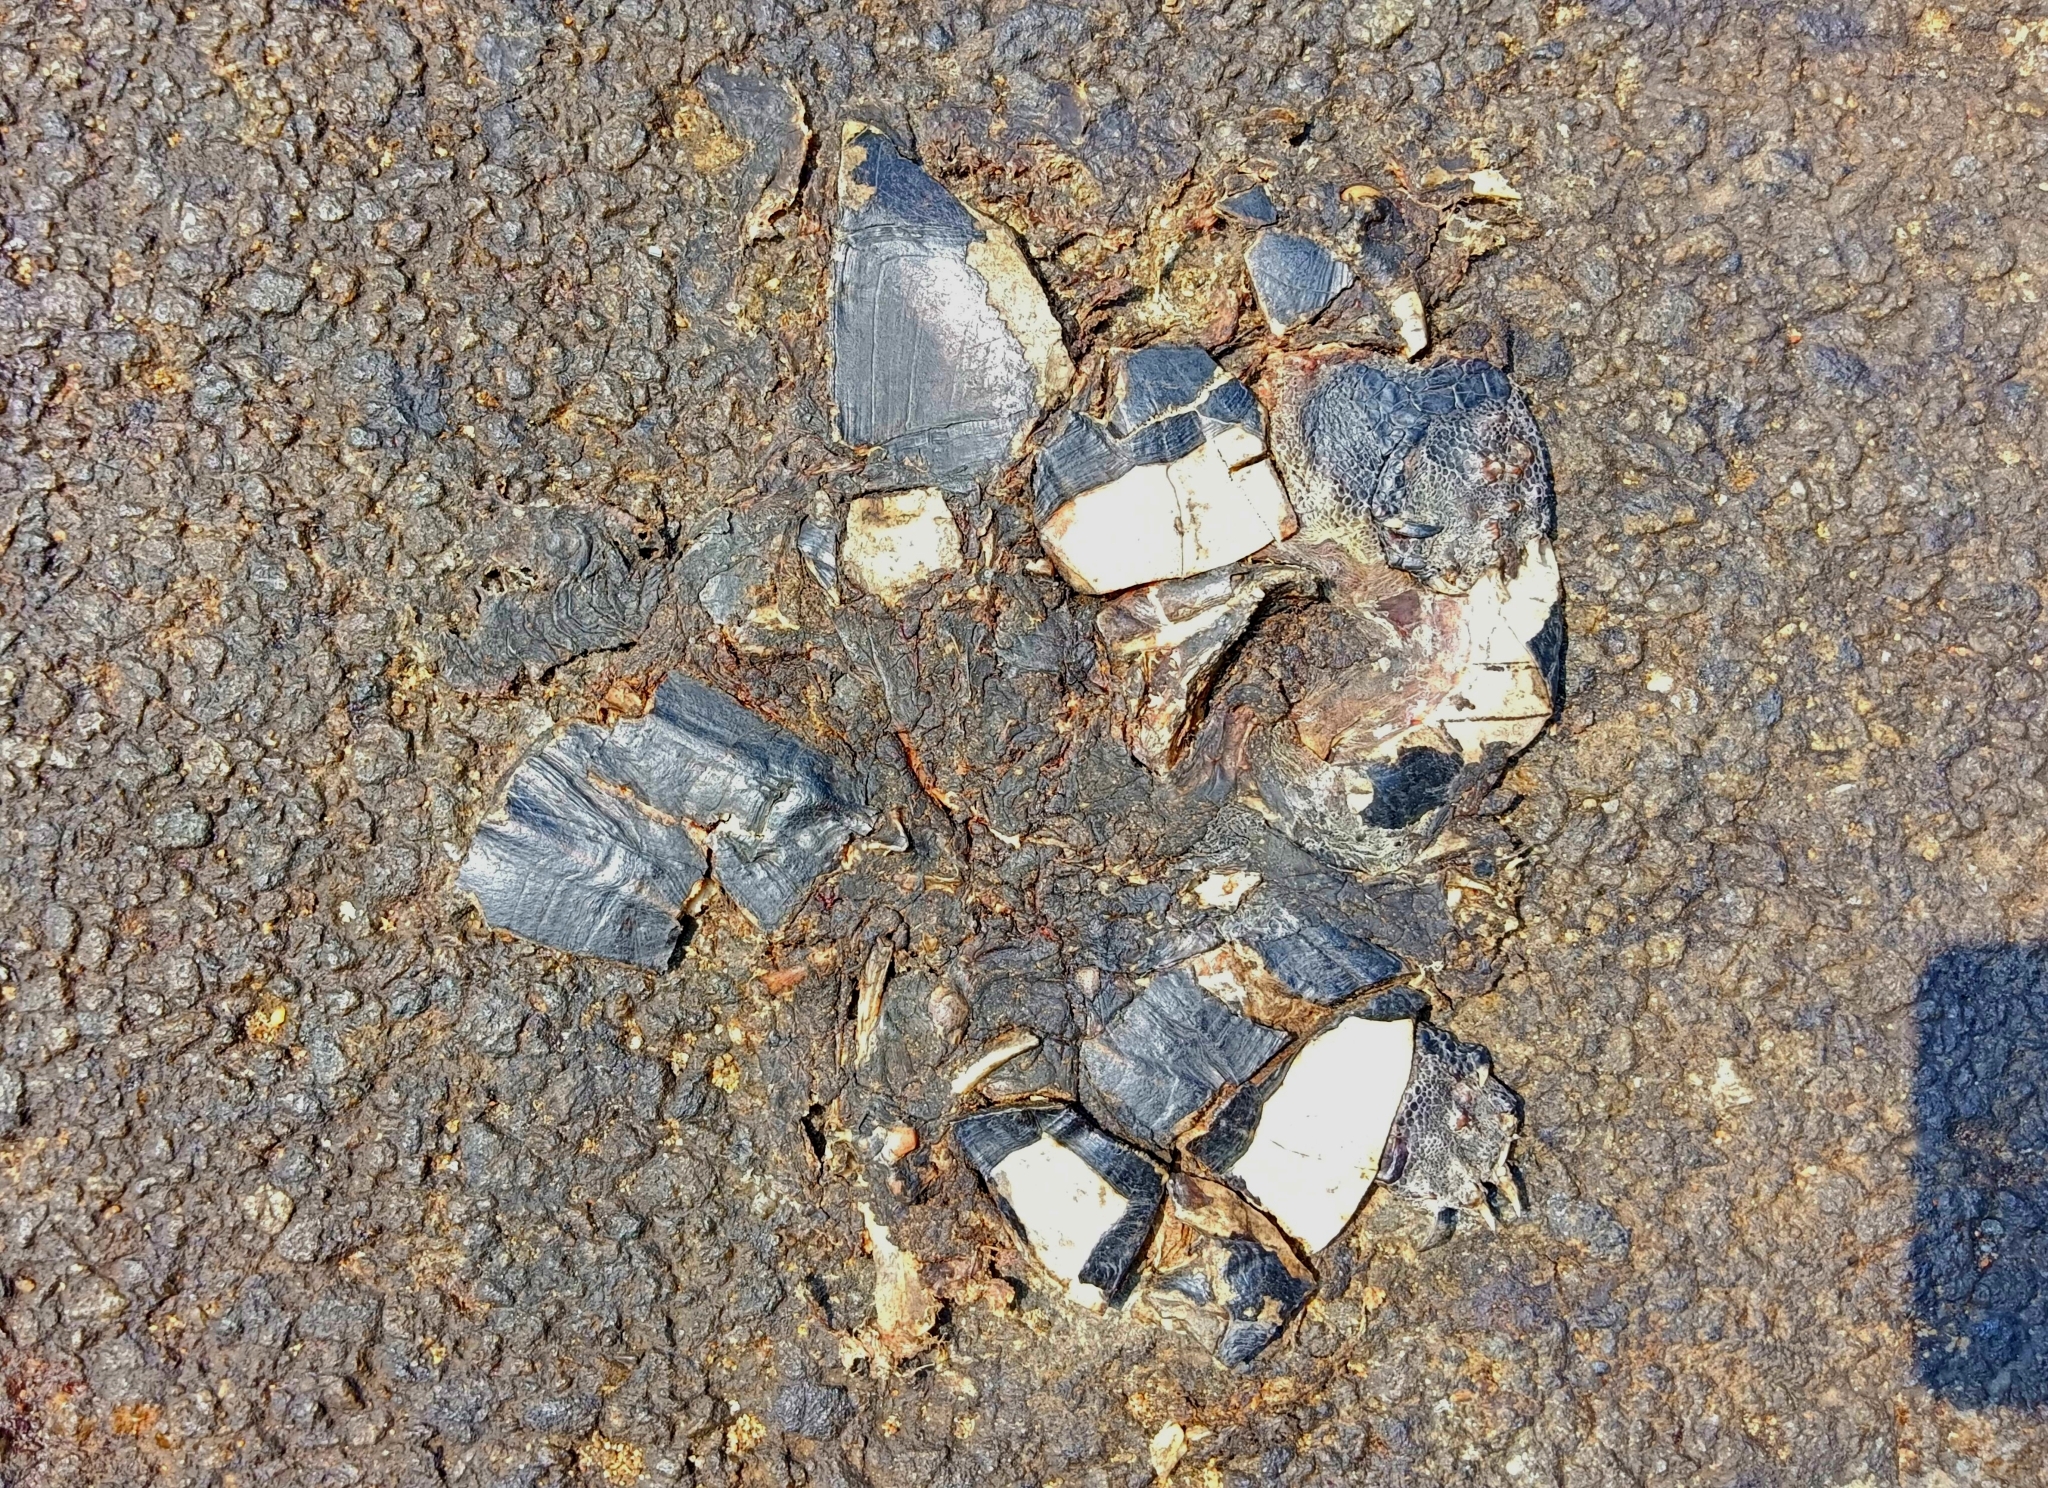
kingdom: Animalia
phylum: Chordata
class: Testudines
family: Geoemydidae
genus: Melanochelys
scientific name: Melanochelys trijuga
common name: Indian black turtle
